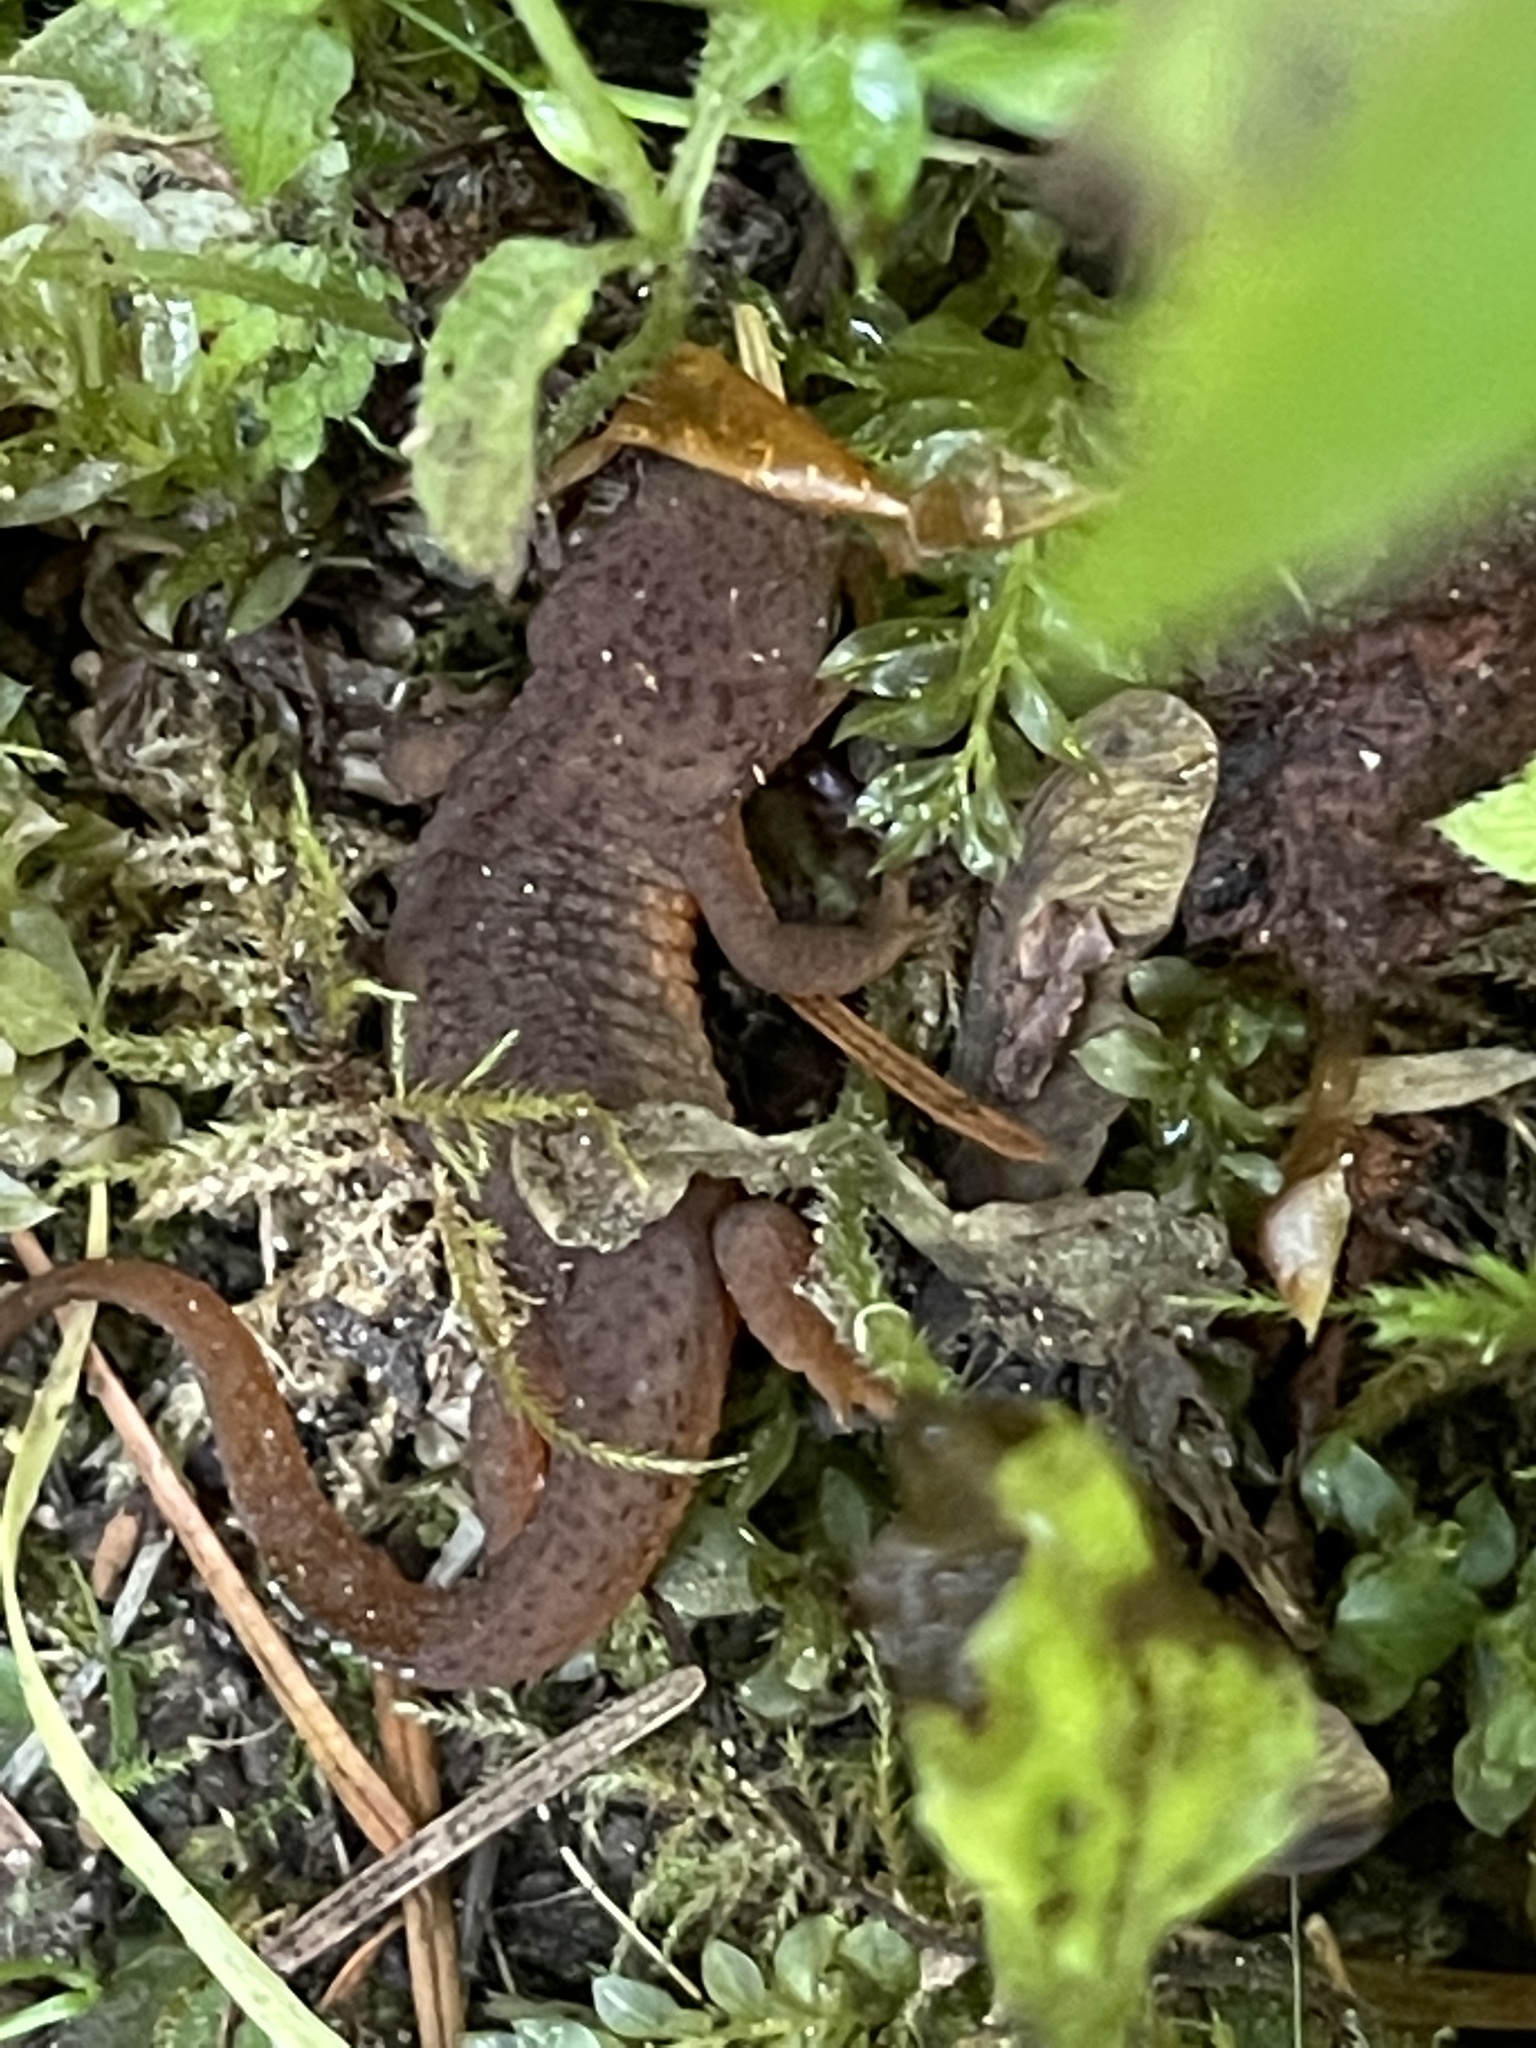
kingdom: Animalia
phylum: Chordata
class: Amphibia
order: Caudata
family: Salamandridae
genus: Taricha
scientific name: Taricha granulosa
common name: Roughskin newt
